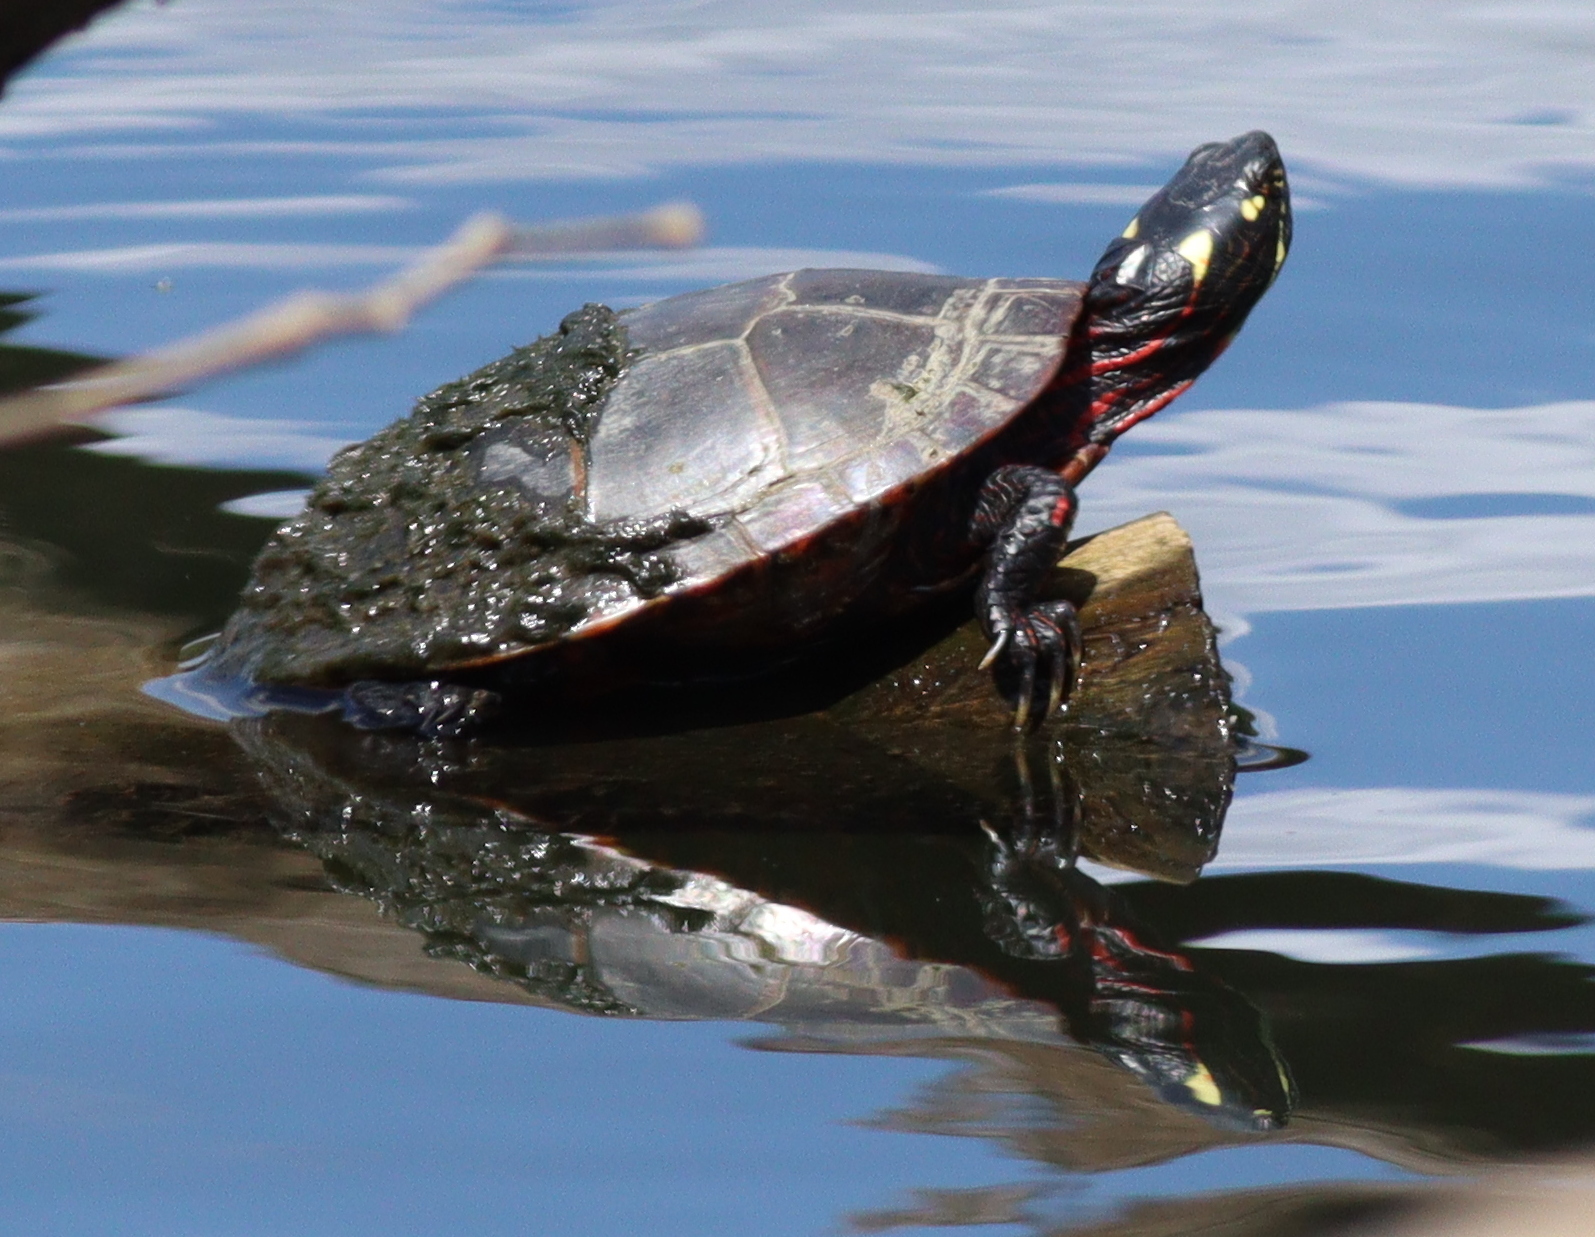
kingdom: Animalia
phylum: Chordata
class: Testudines
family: Emydidae
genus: Chrysemys
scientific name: Chrysemys picta
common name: Painted turtle
